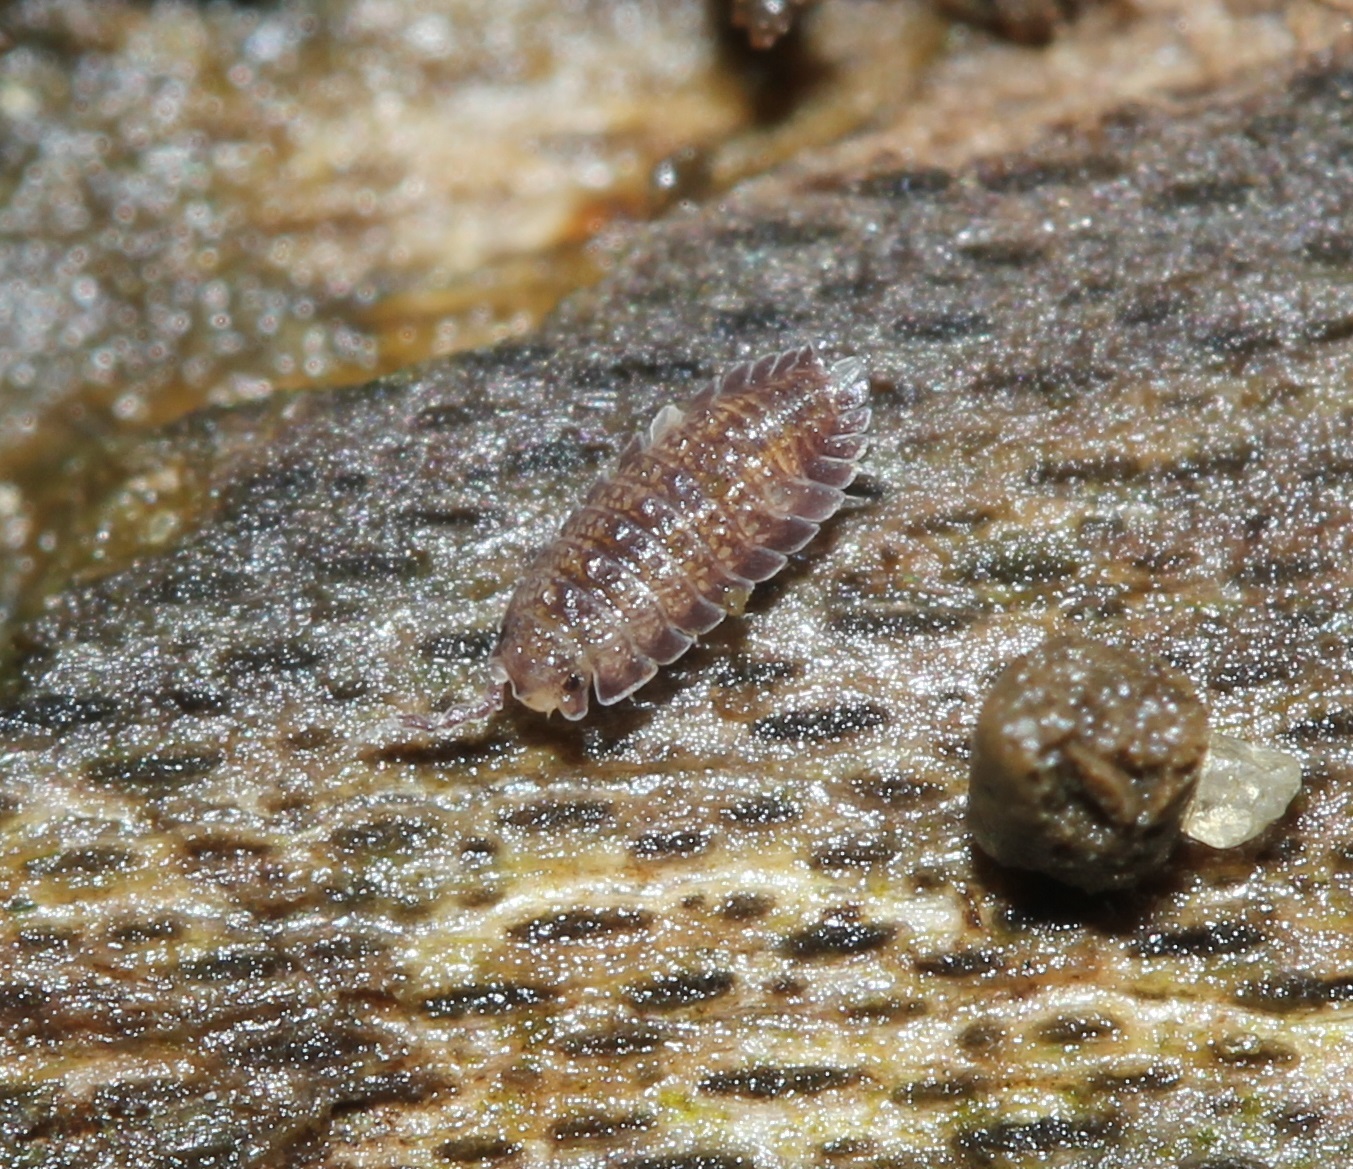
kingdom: Animalia
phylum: Arthropoda
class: Malacostraca
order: Isopoda
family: Detonidae
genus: Armadilloniscus
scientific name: Armadilloniscus ellipticus
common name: Pillbug
